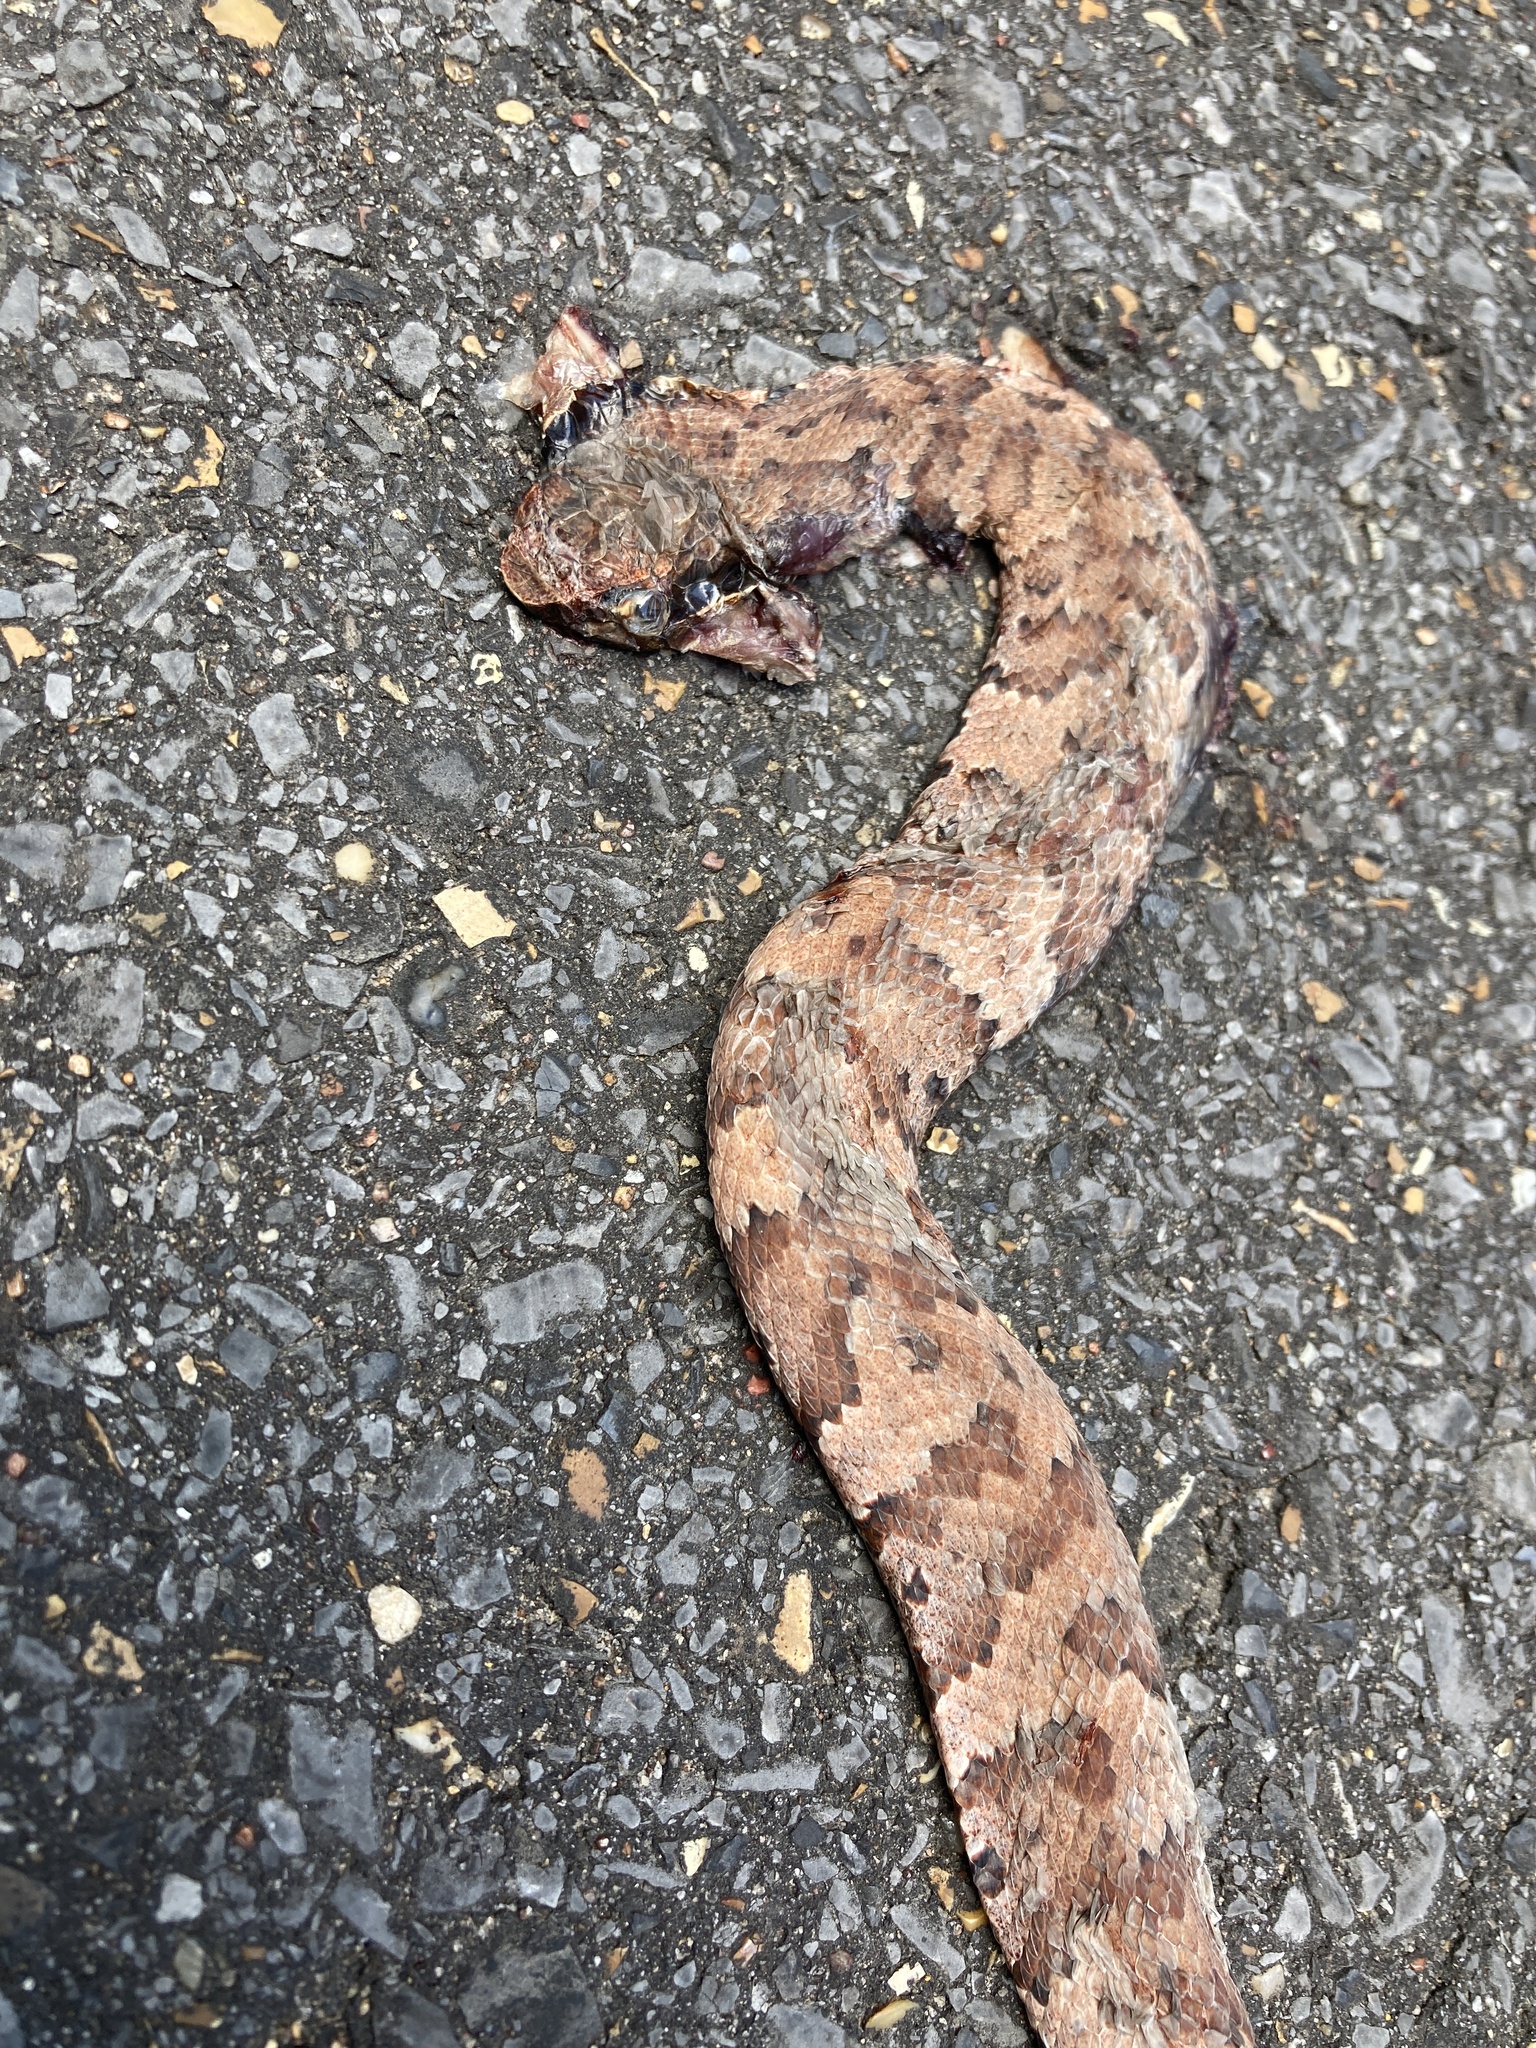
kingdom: Animalia
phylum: Chordata
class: Squamata
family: Viperidae
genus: Agkistrodon
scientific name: Agkistrodon piscivorus
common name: Cottonmouth
